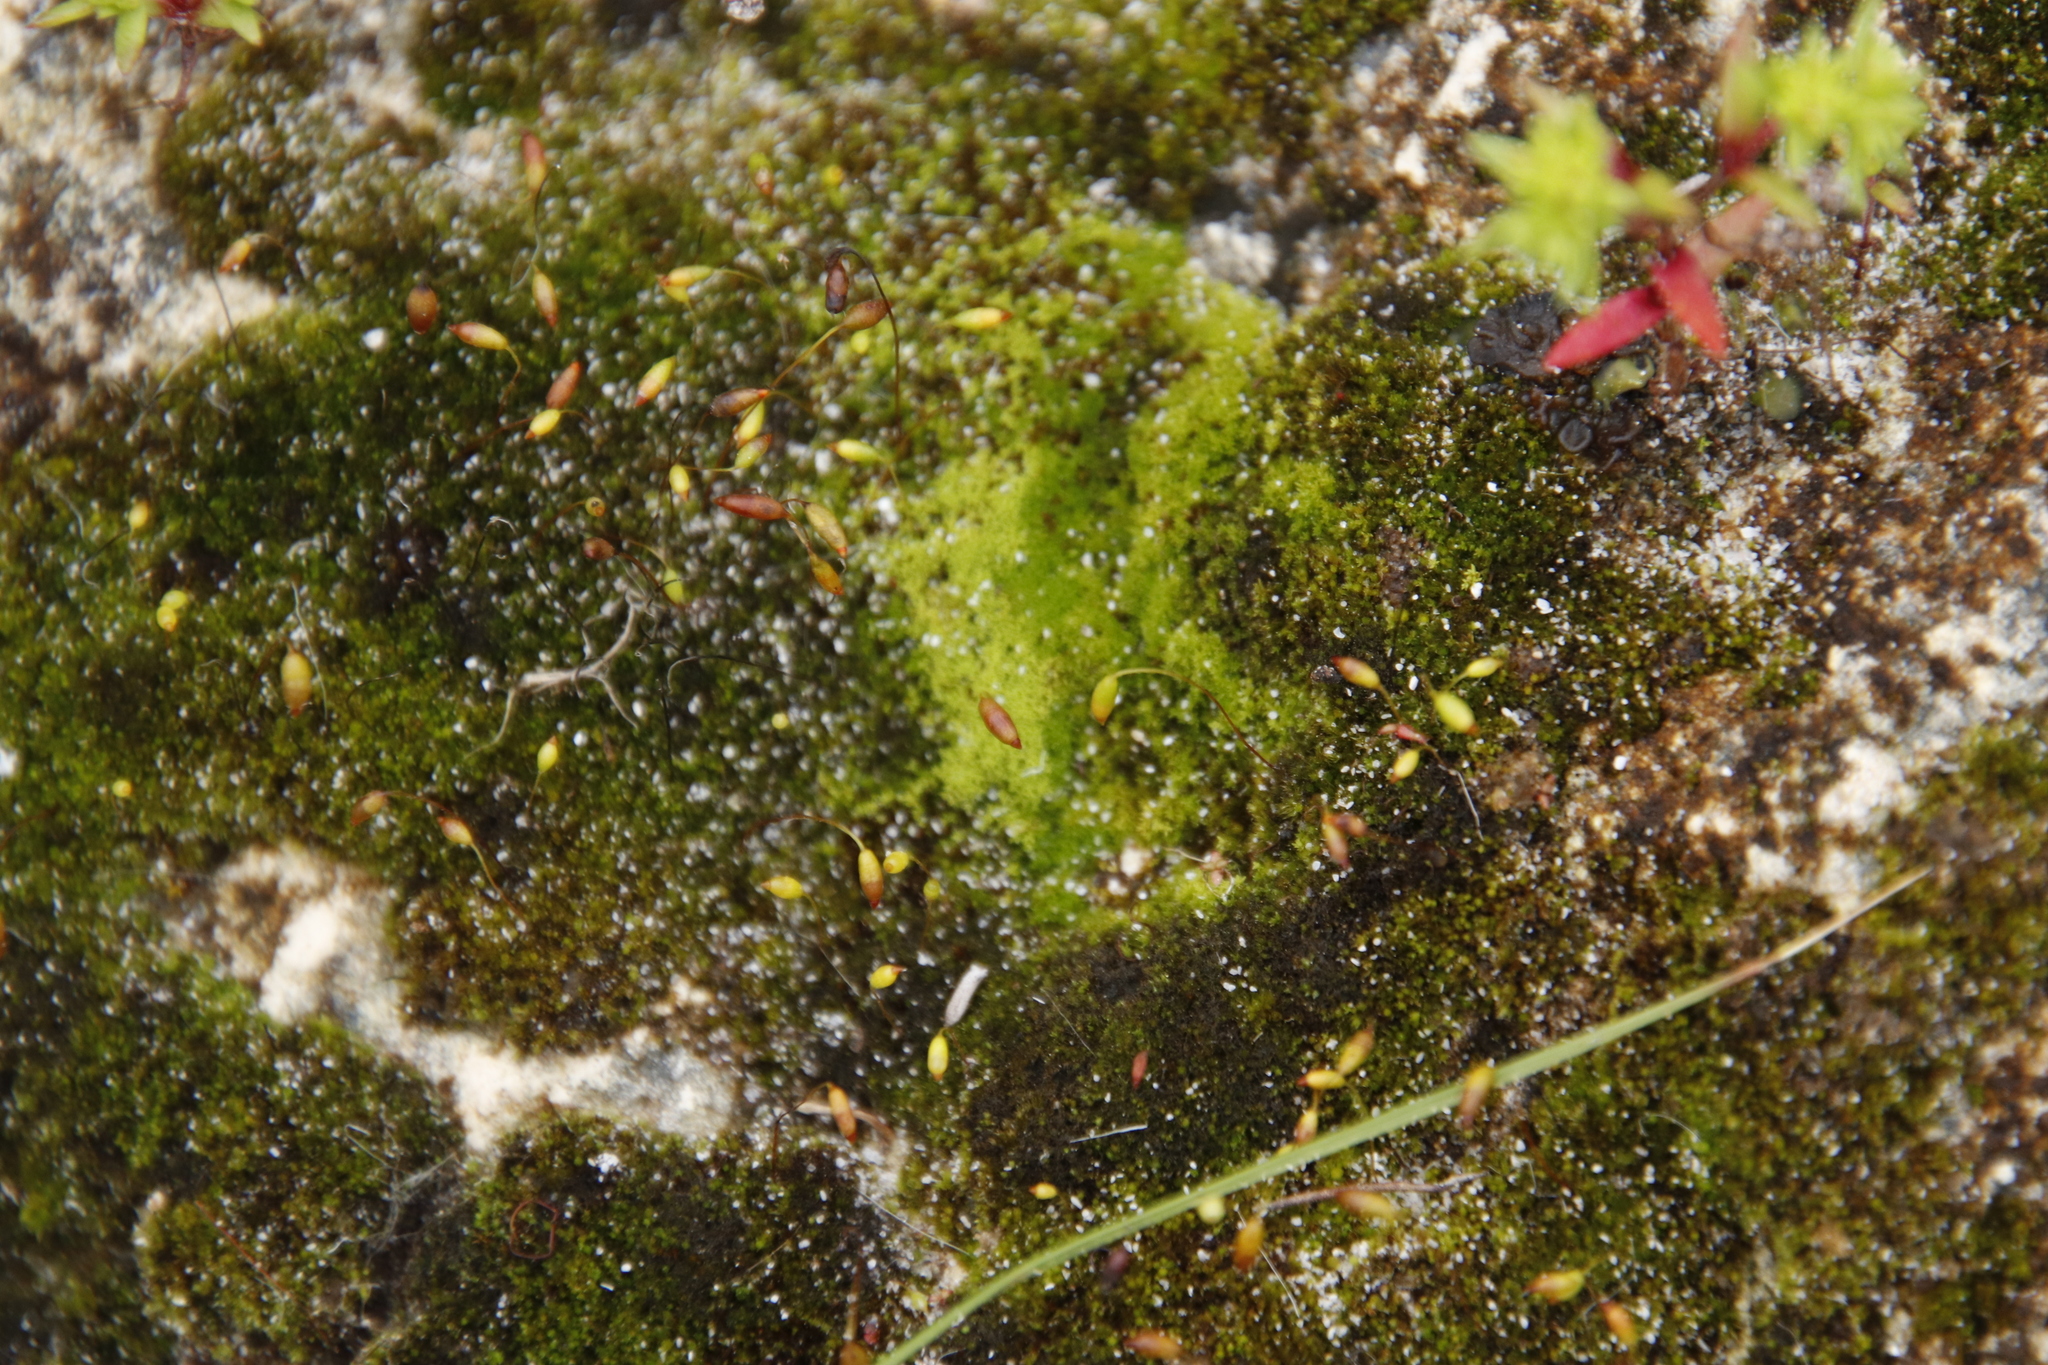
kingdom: Plantae
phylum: Bryophyta
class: Bryopsida
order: Bryales
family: Bryaceae
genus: Brachymenium
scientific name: Brachymenium dicranoides
